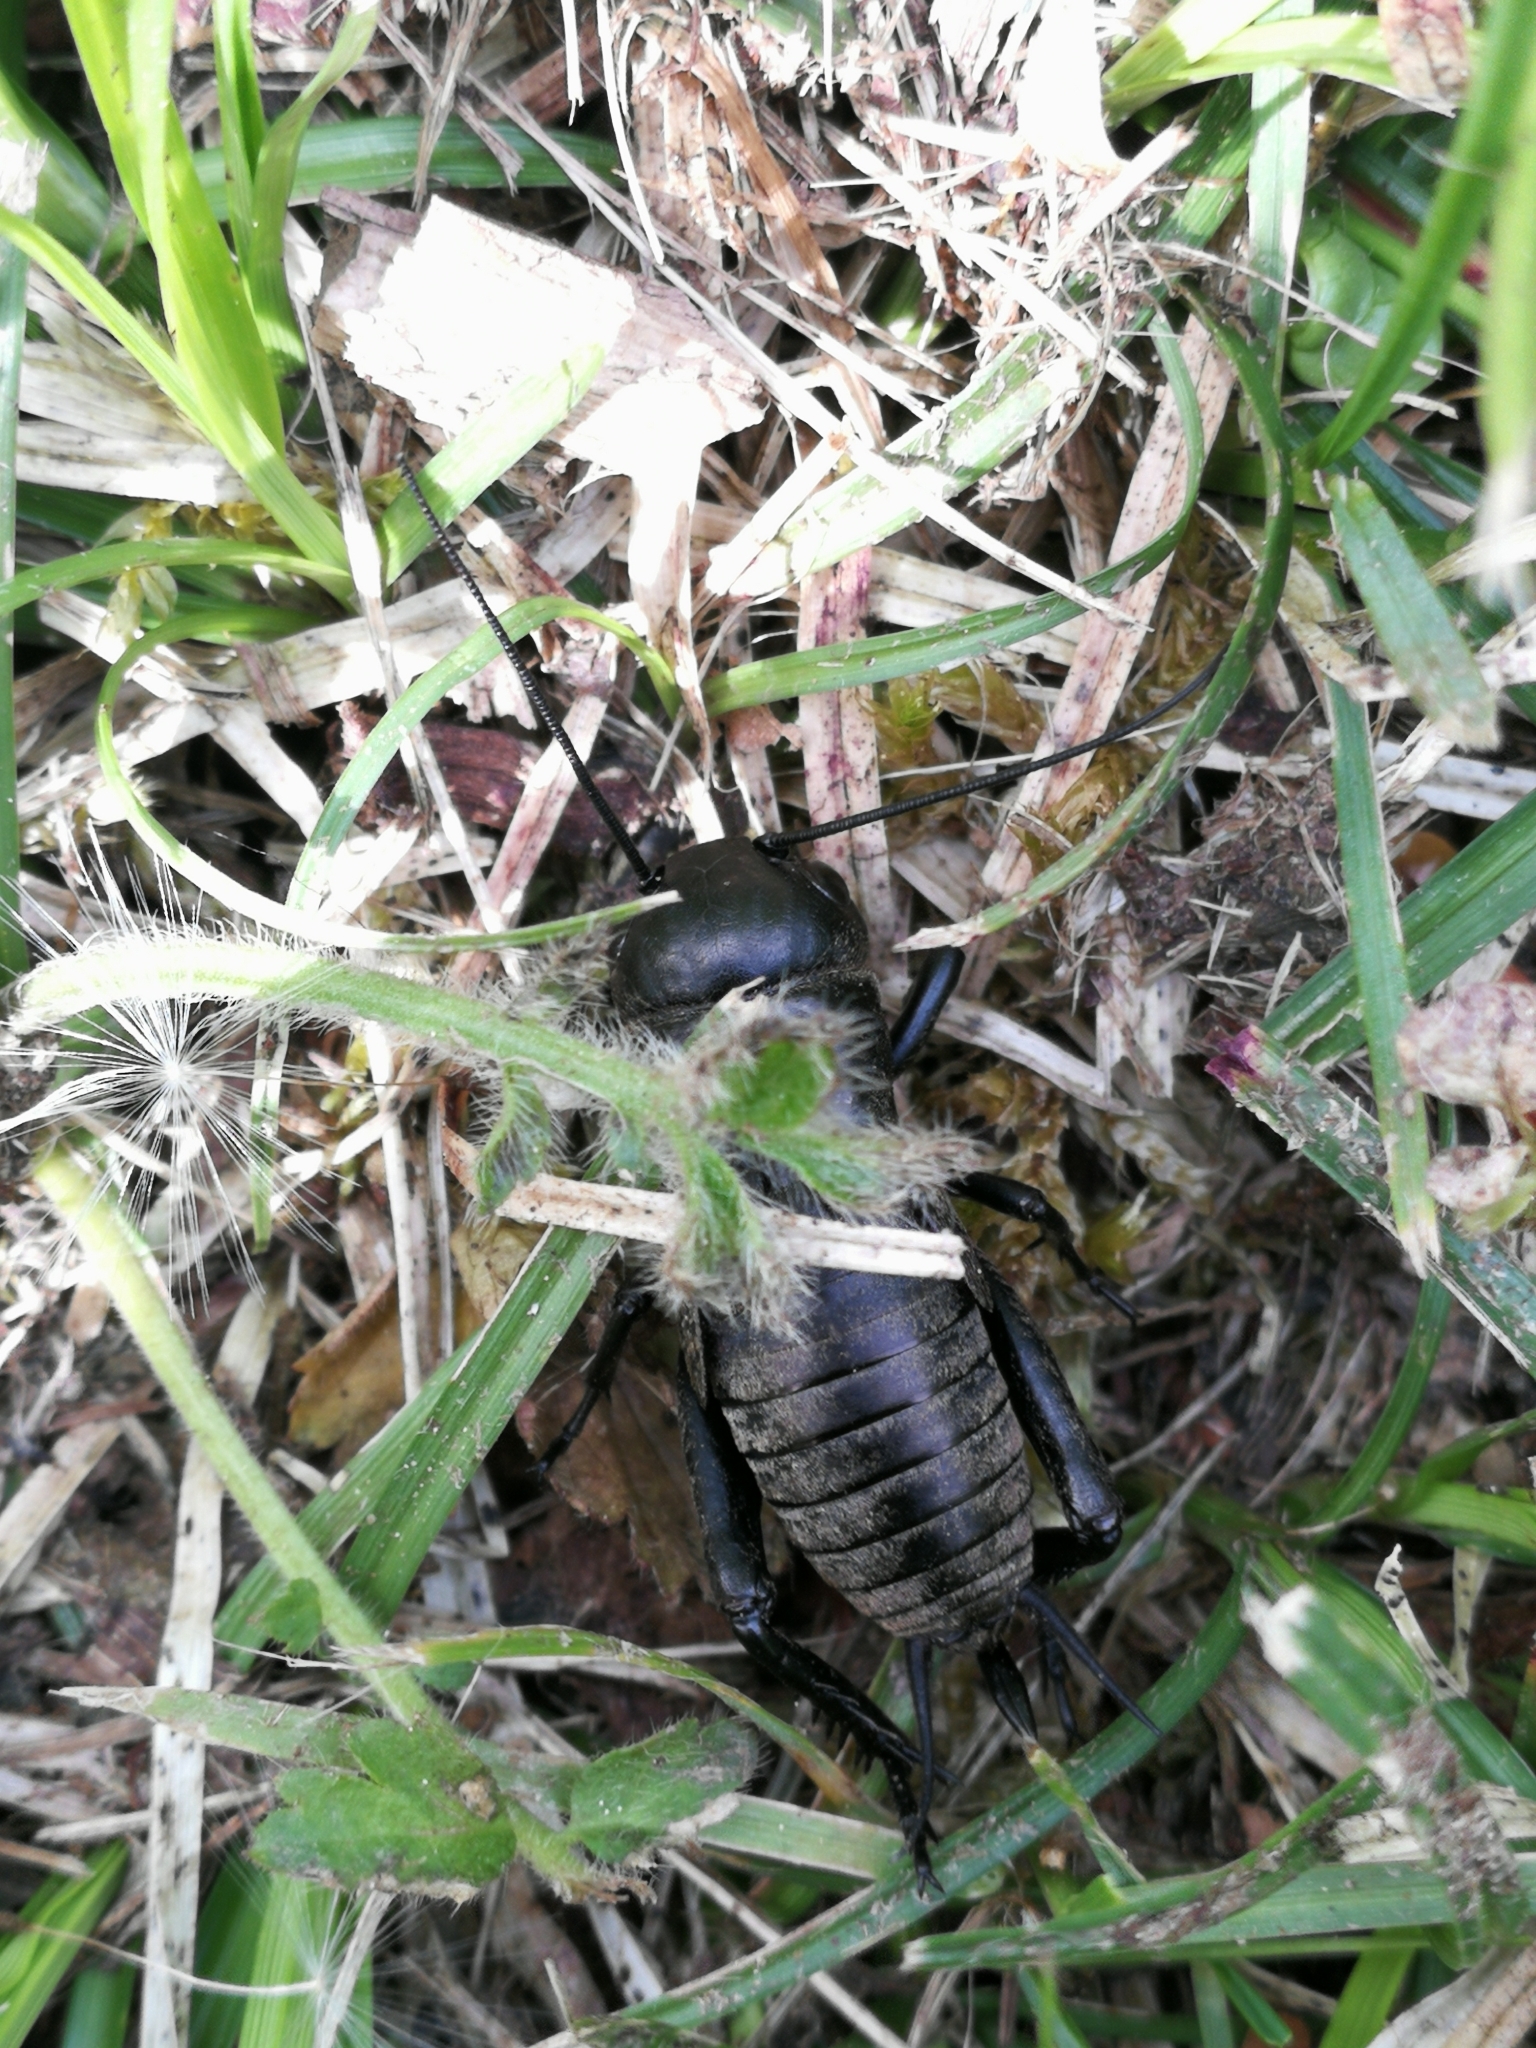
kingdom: Animalia
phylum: Arthropoda
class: Insecta
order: Orthoptera
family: Gryllidae
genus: Gryllus
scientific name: Gryllus campestris
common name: Field cricket
